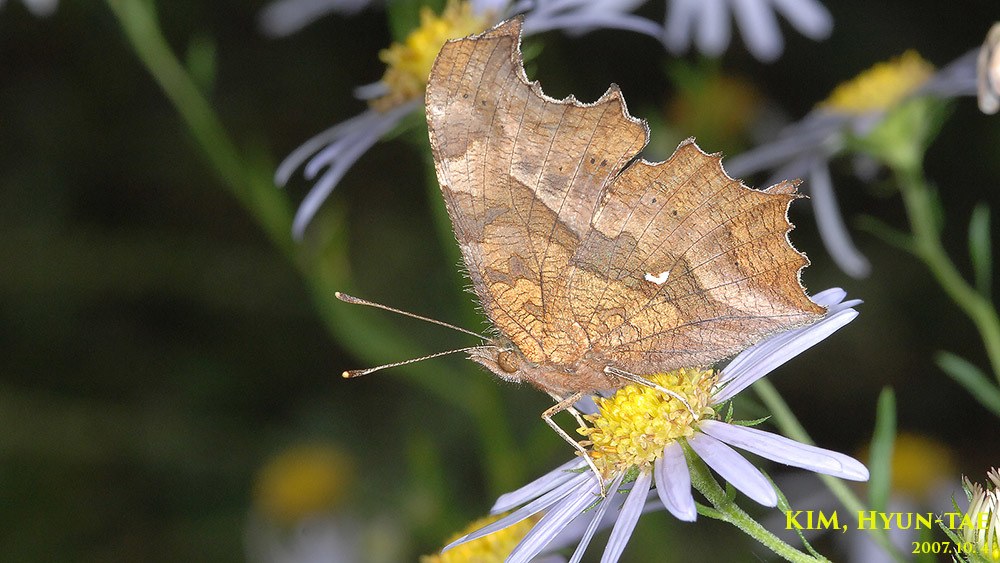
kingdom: Animalia
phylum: Arthropoda
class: Insecta
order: Lepidoptera
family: Nymphalidae
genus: Polygonia
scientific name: Polygonia c-aureum
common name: Asian comma
